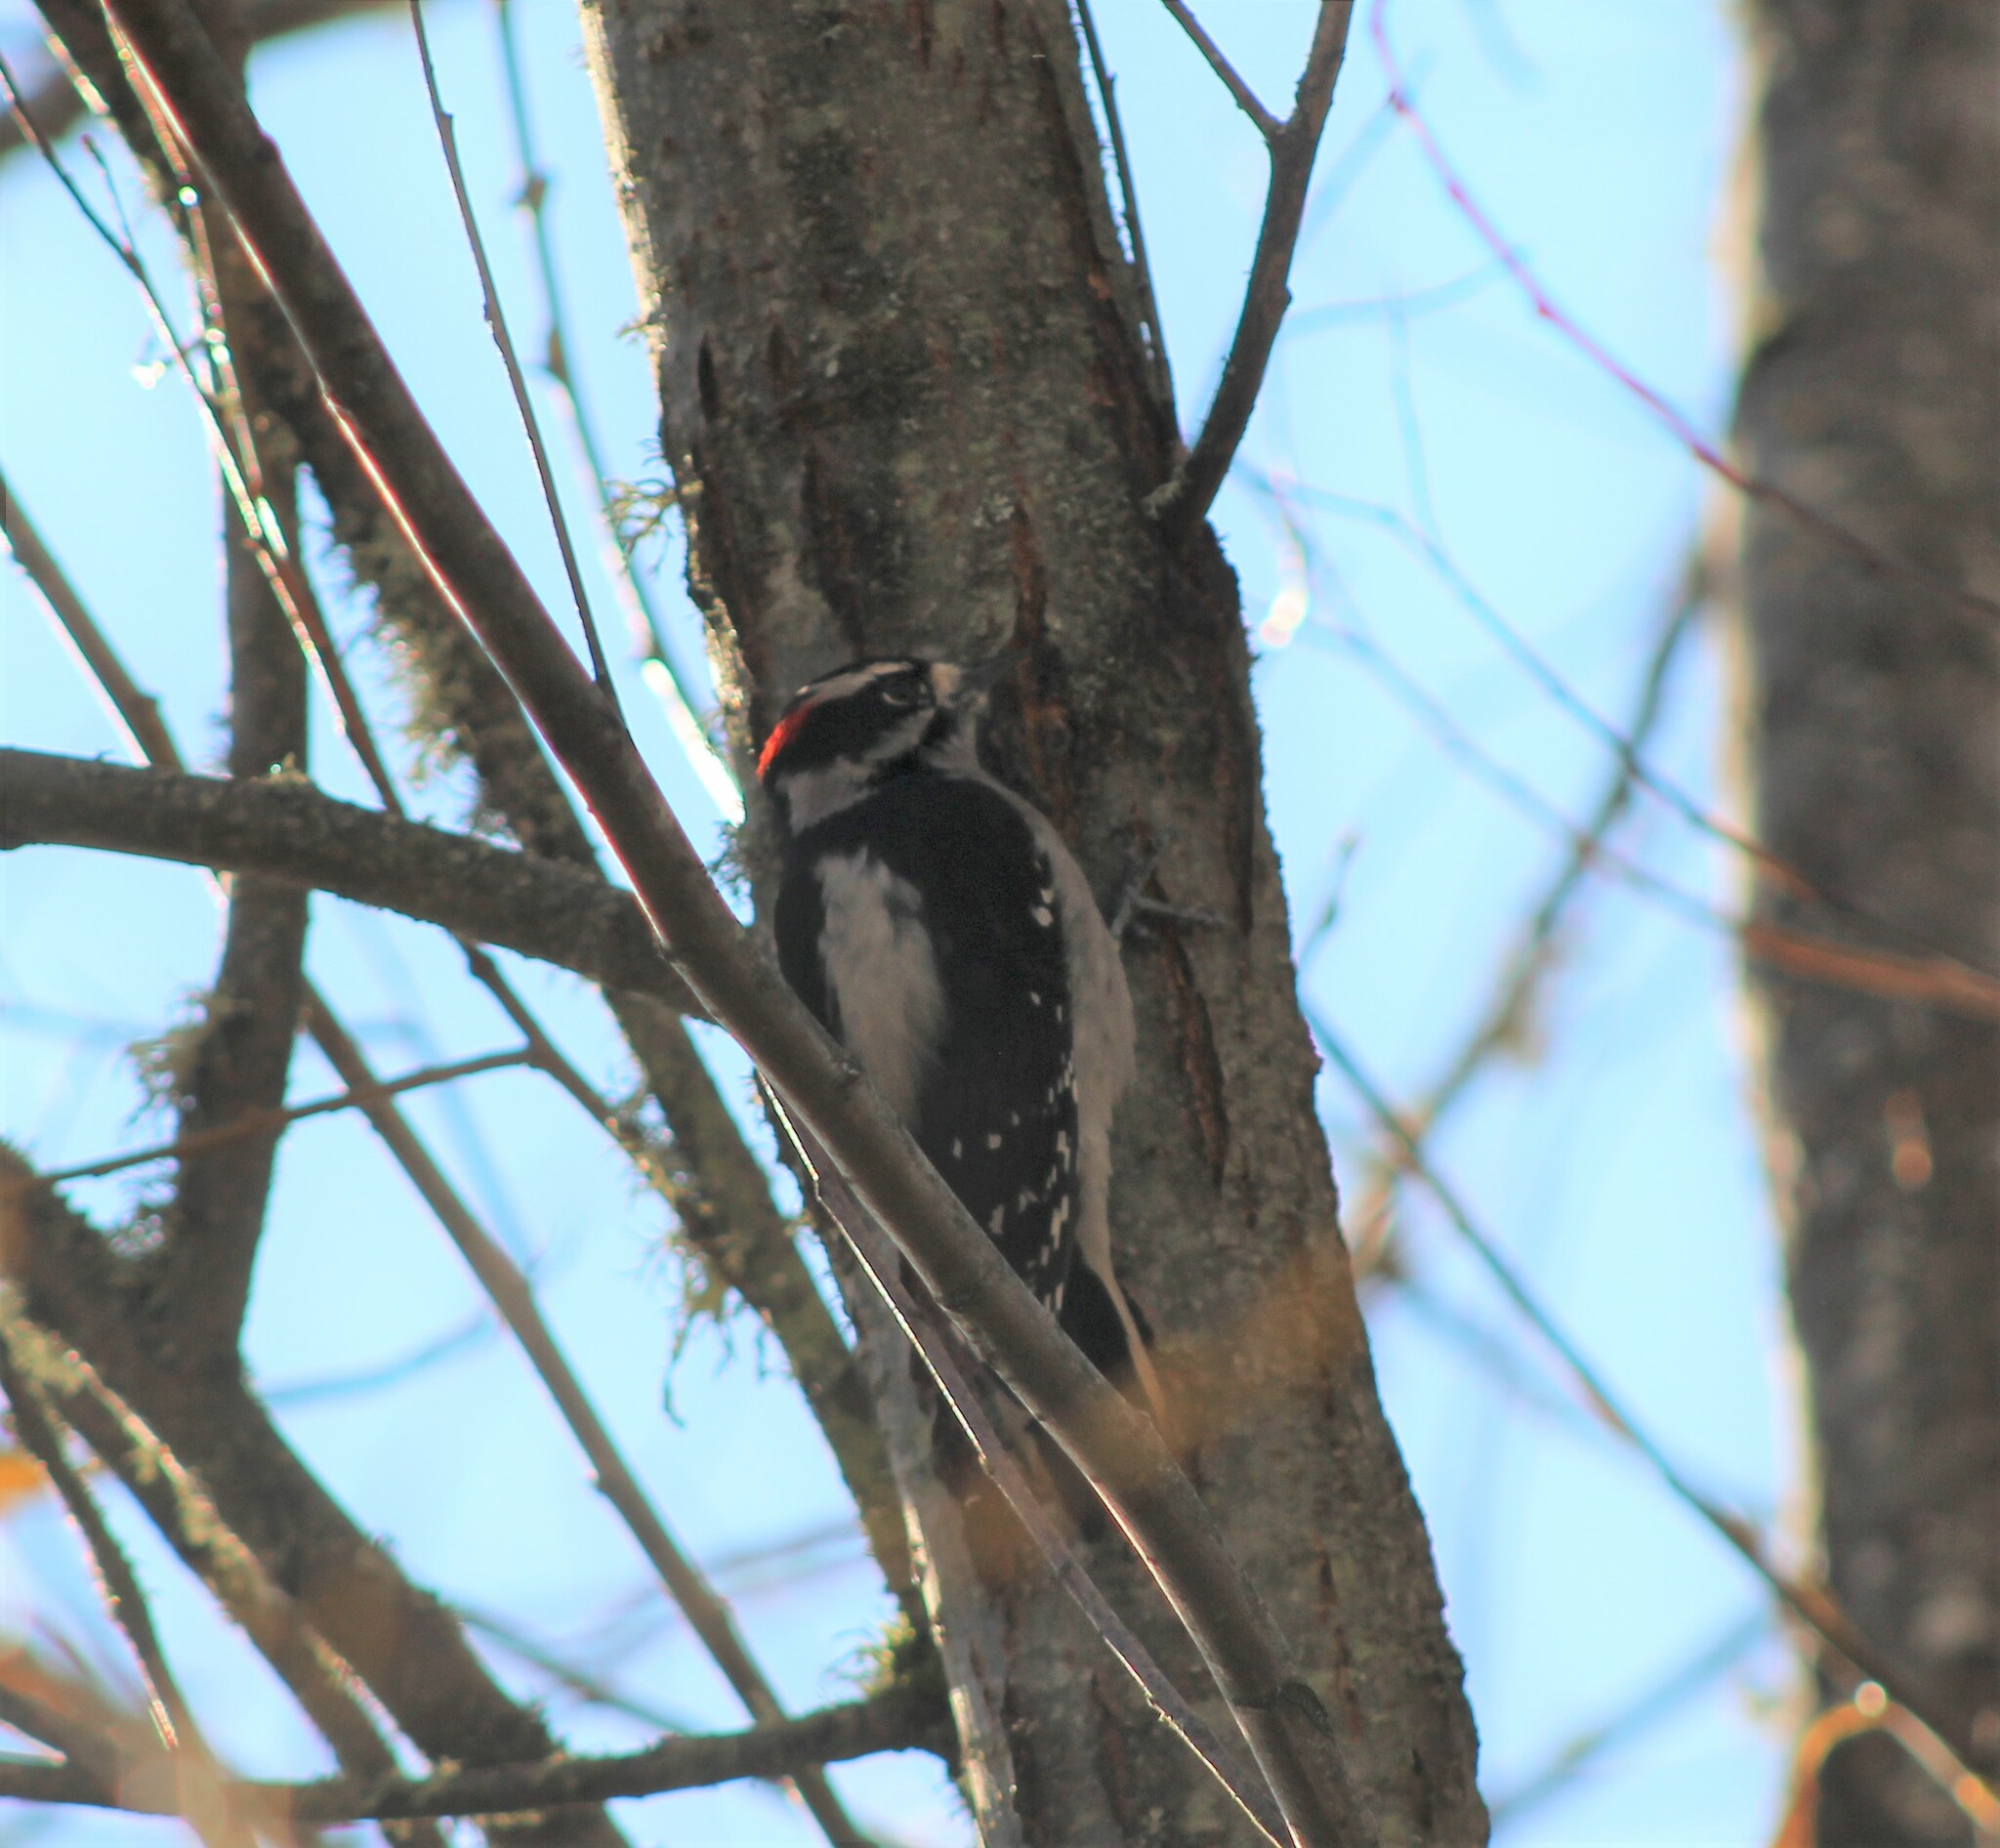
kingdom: Animalia
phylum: Chordata
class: Aves
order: Piciformes
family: Picidae
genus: Dryobates
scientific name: Dryobates pubescens
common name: Downy woodpecker
